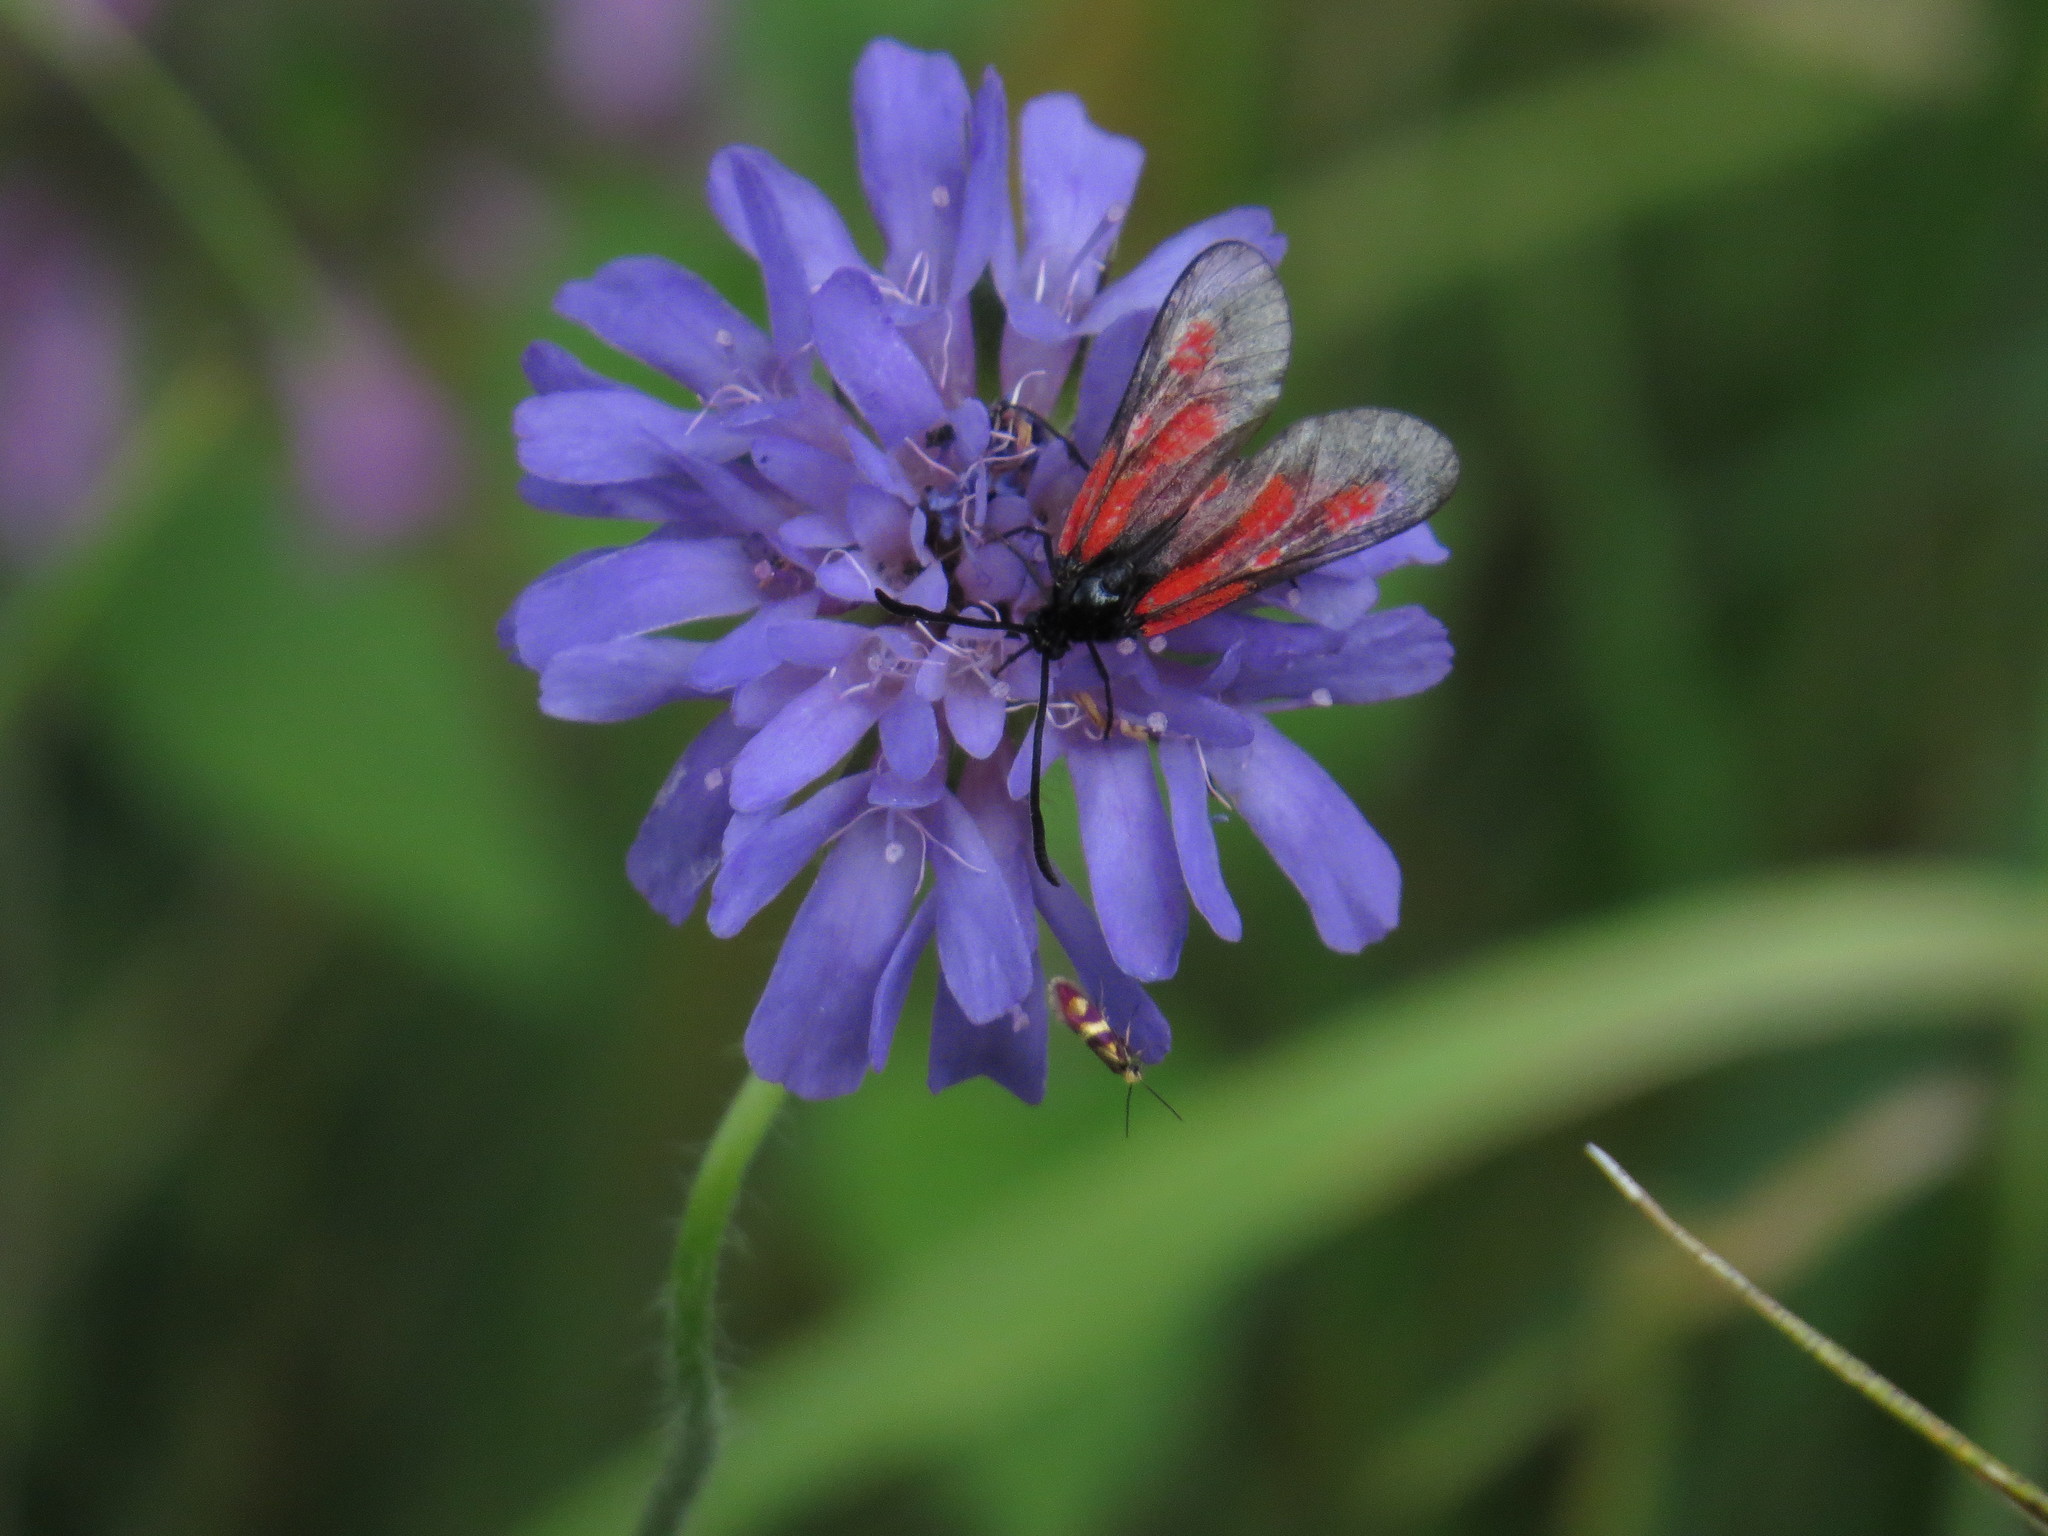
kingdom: Animalia
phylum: Arthropoda
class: Insecta
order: Lepidoptera
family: Zygaenidae
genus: Zygaena
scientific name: Zygaena purpuralis
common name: Transparent burnet
